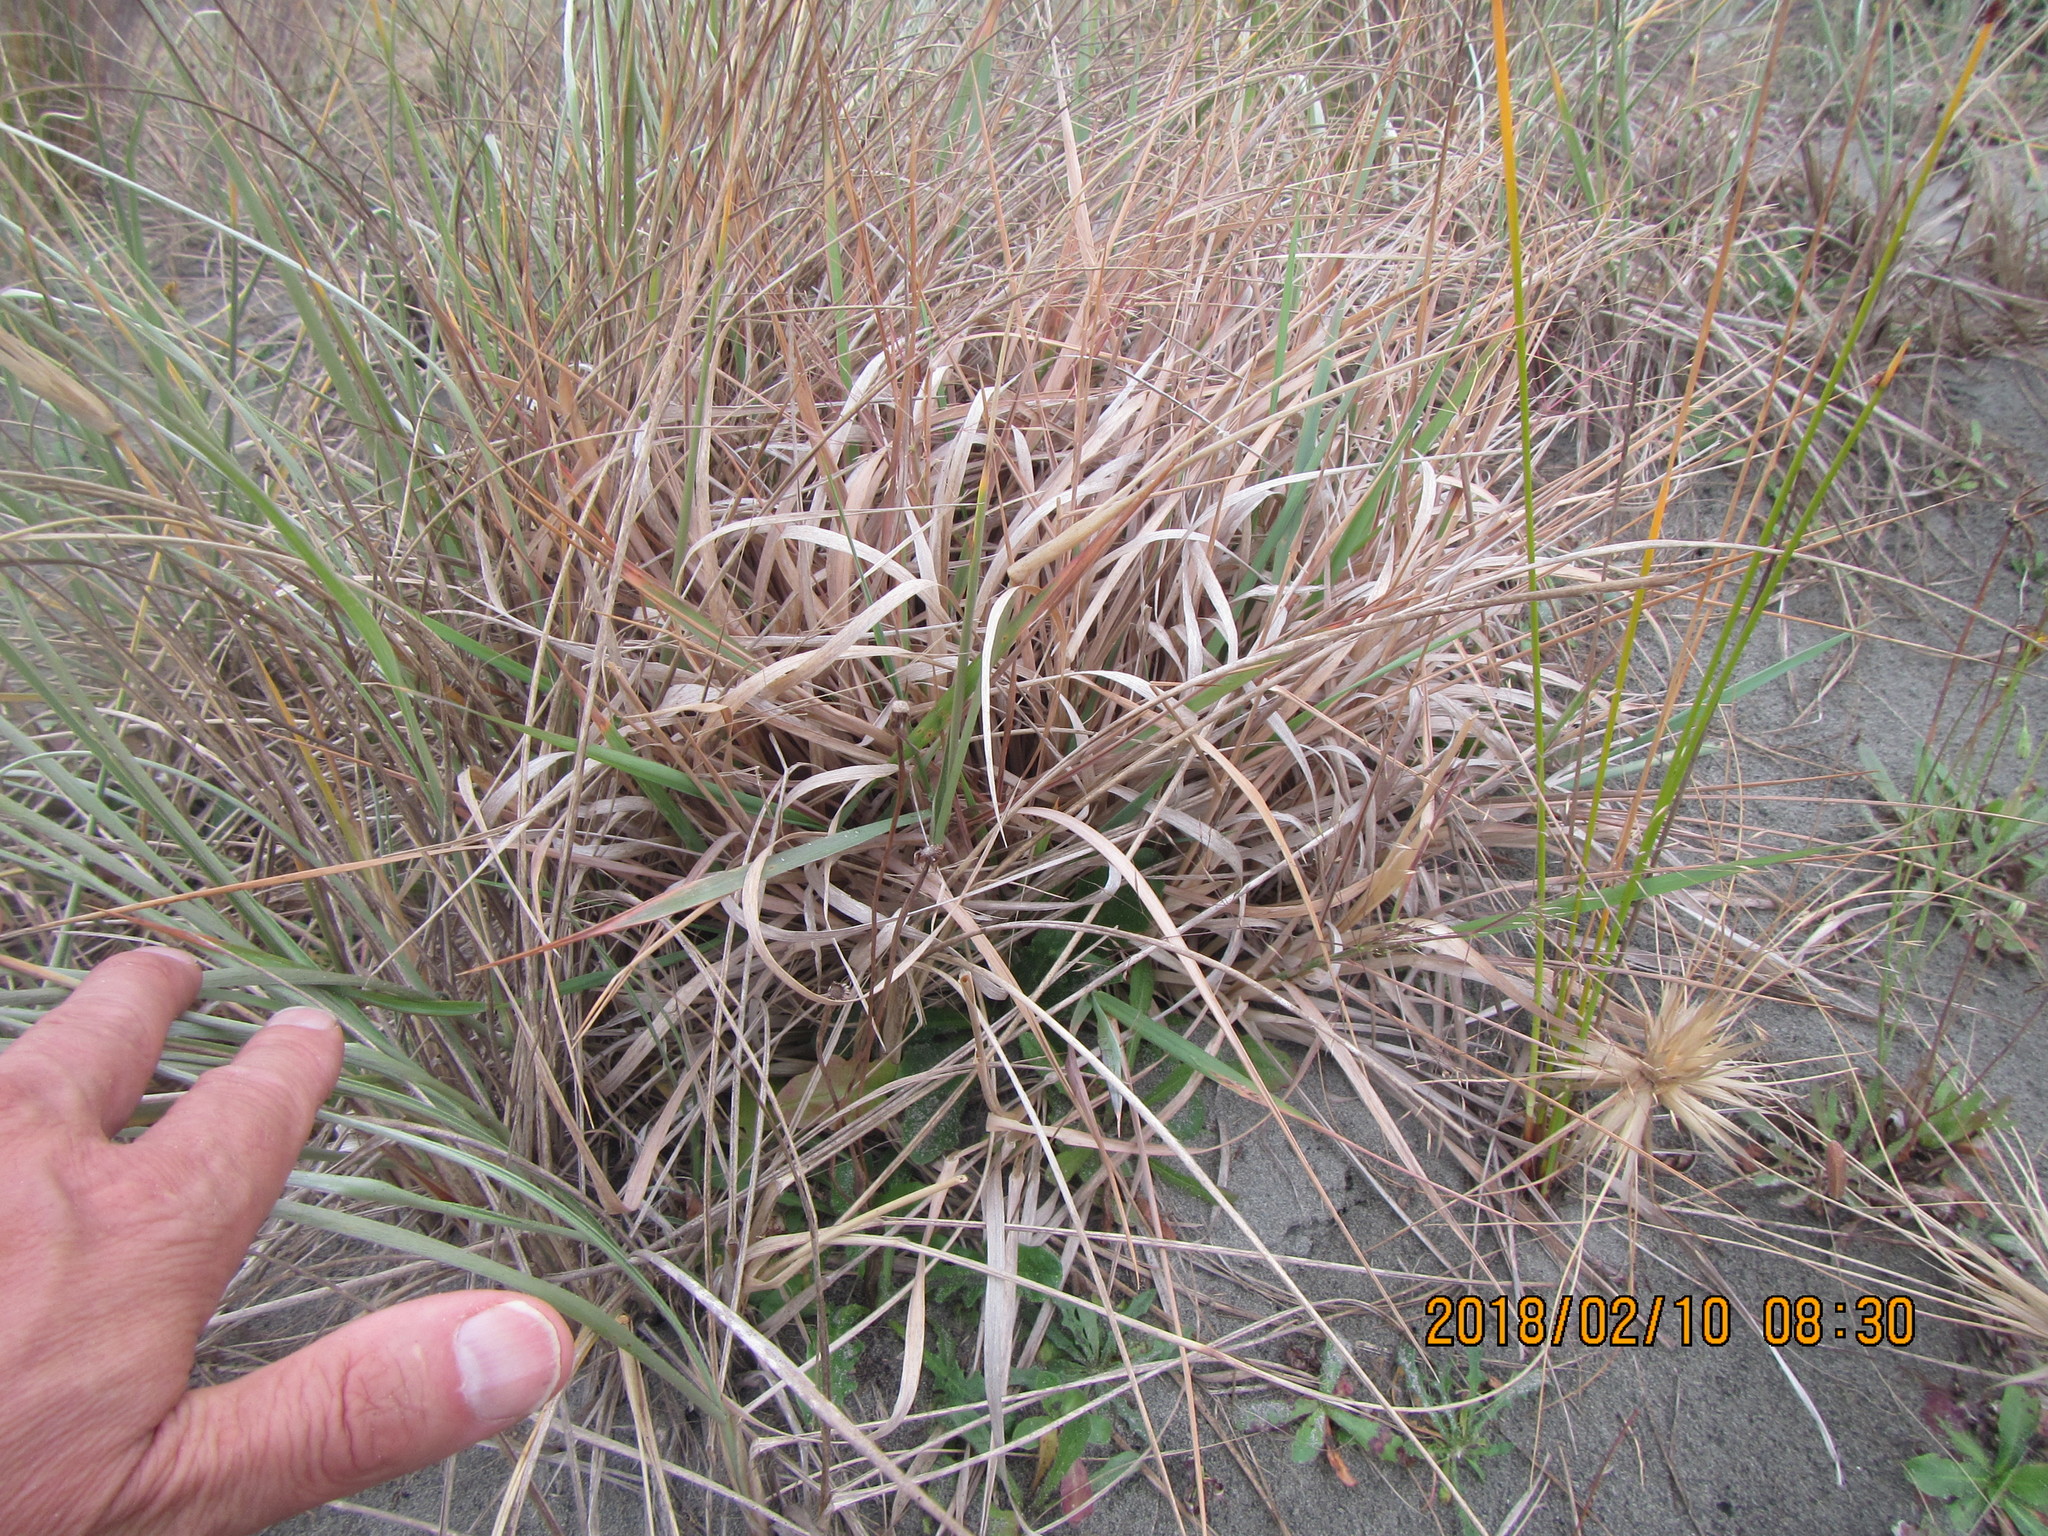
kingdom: Plantae
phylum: Tracheophyta
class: Liliopsida
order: Poales
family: Poaceae
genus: Lachnagrostis
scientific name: Lachnagrostis billardierei
